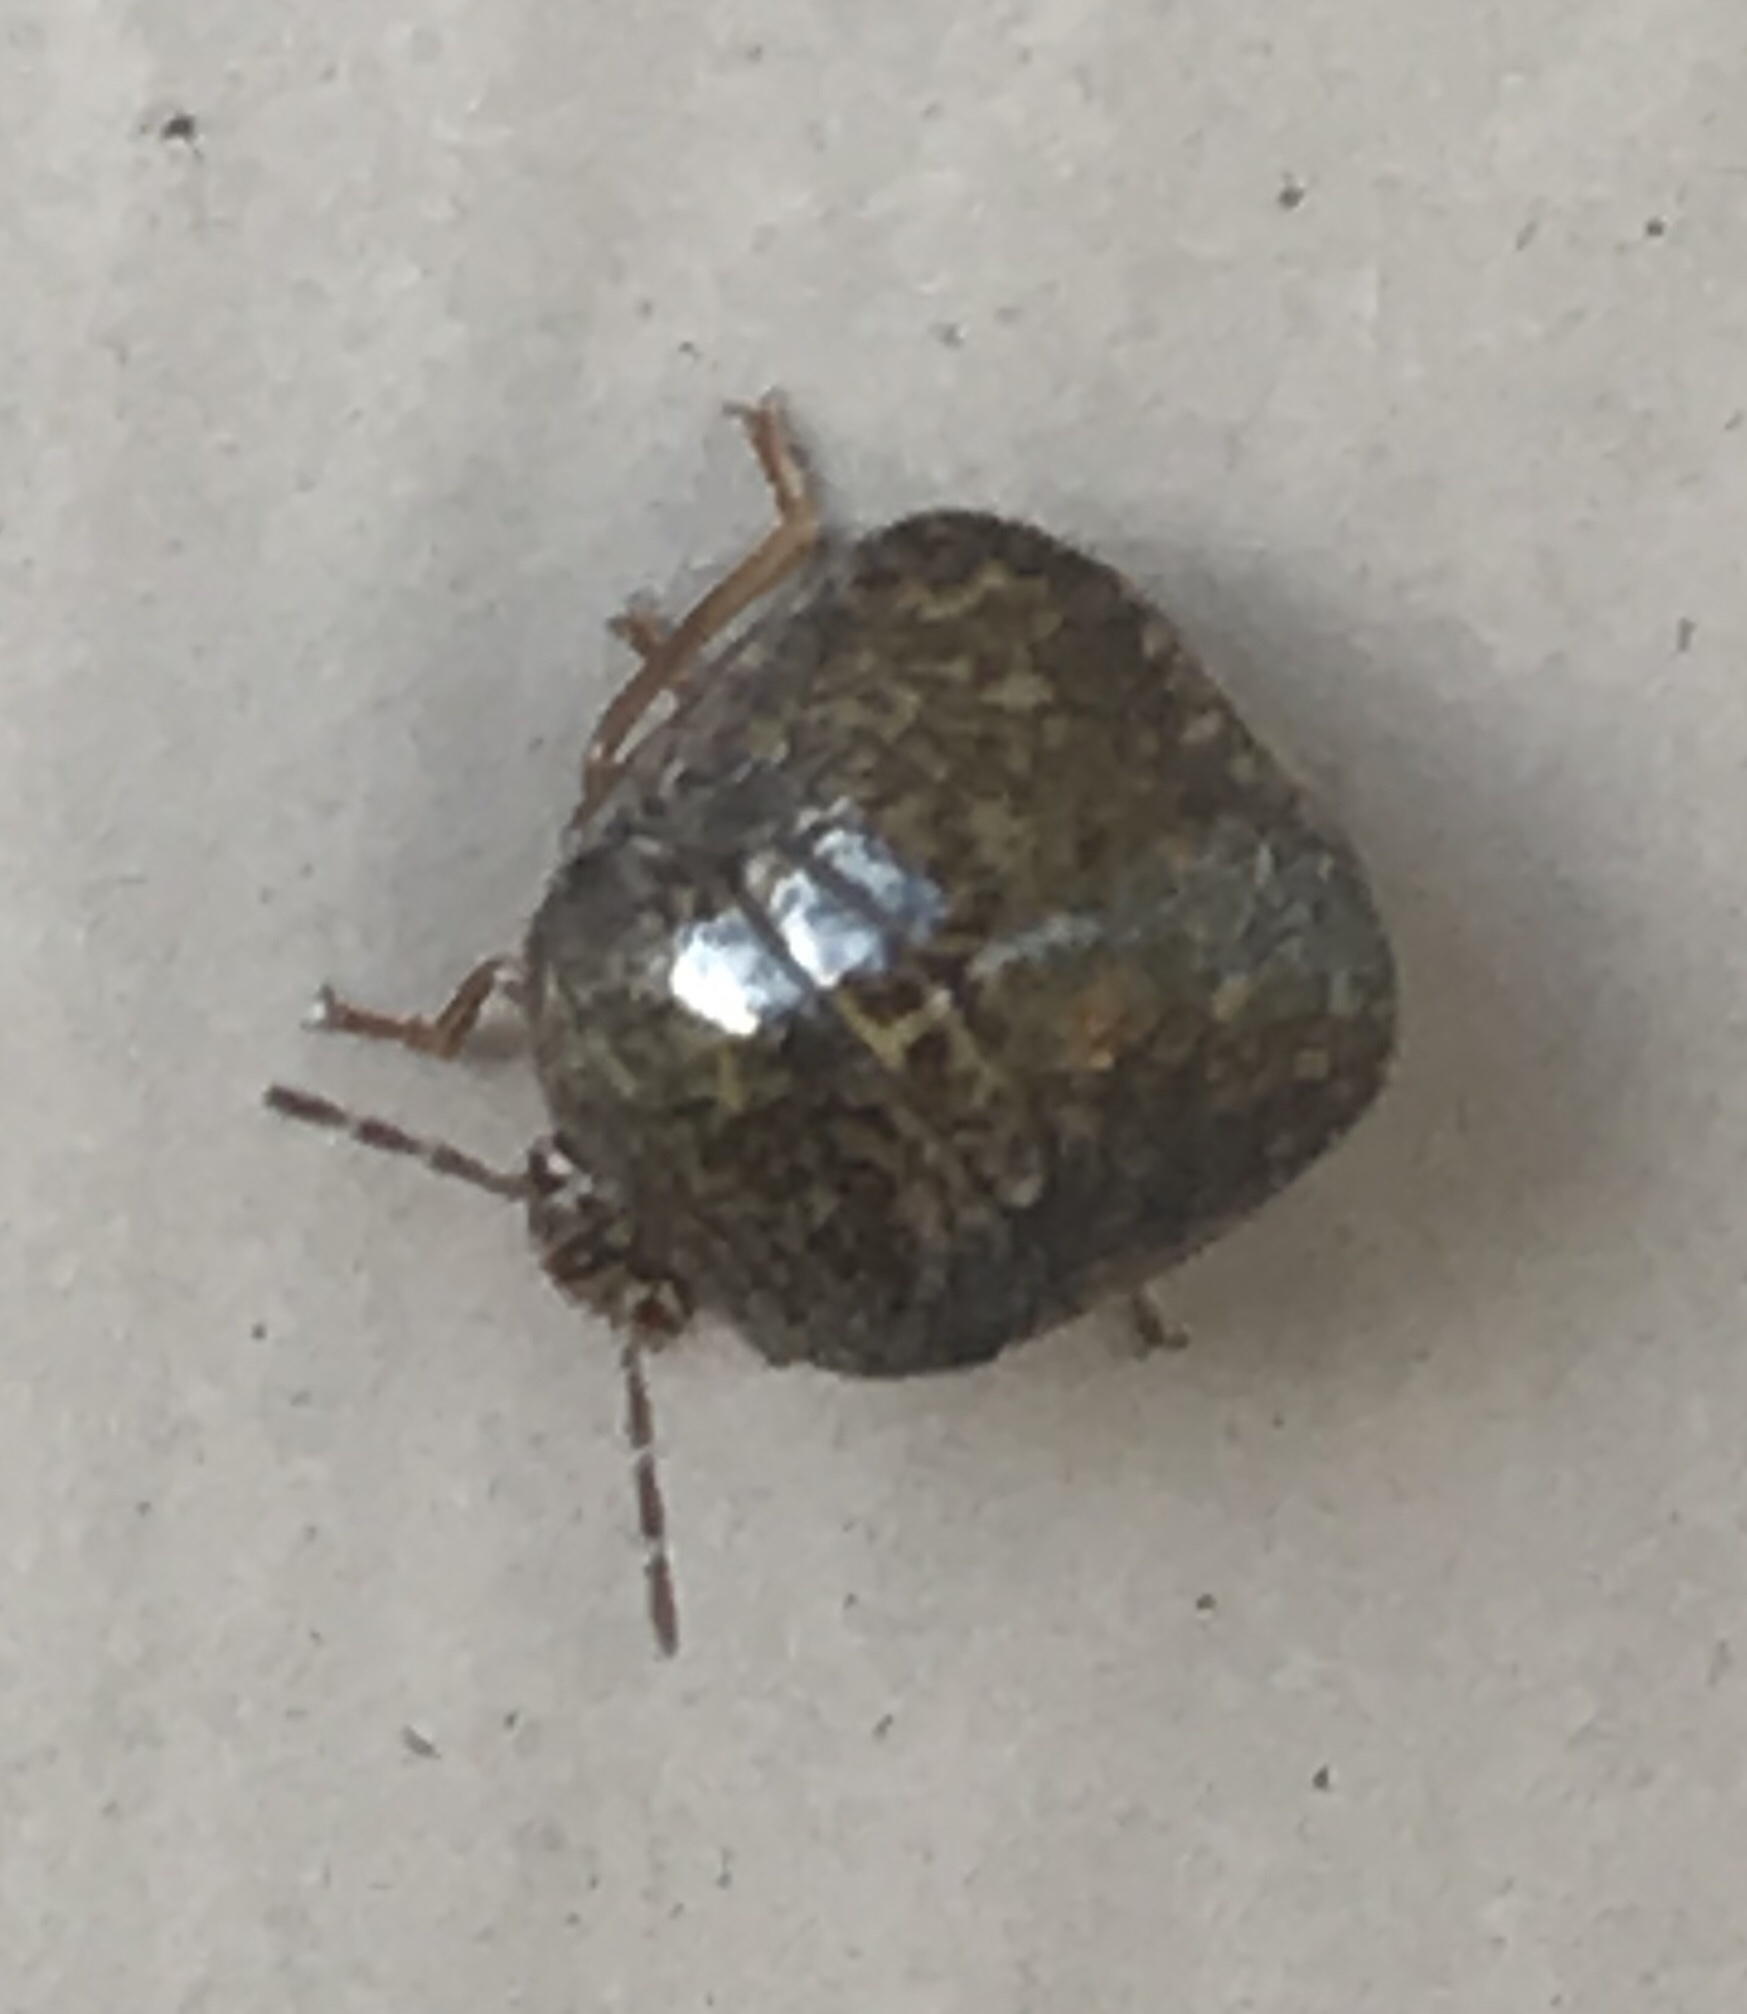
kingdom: Animalia
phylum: Arthropoda
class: Insecta
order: Hemiptera
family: Plataspidae
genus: Megacopta
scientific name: Megacopta cribraria
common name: Bean plataspid
